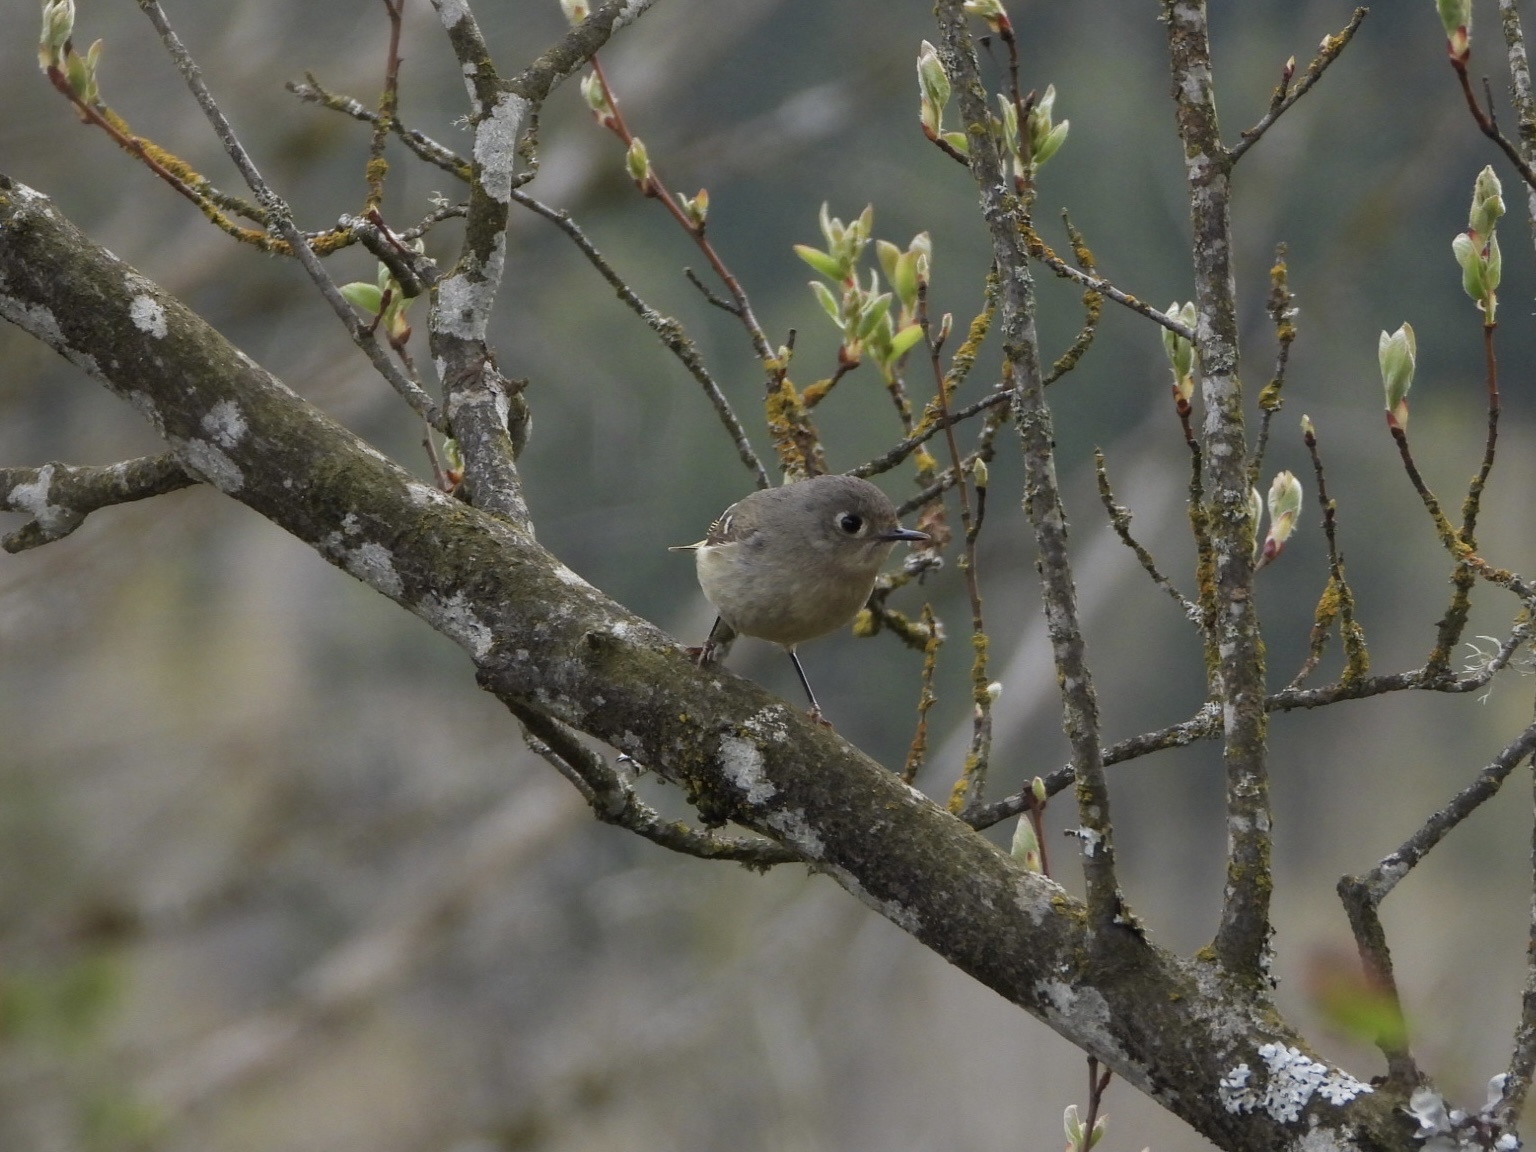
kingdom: Animalia
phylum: Chordata
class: Aves
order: Passeriformes
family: Regulidae
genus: Regulus
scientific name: Regulus calendula
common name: Ruby-crowned kinglet
